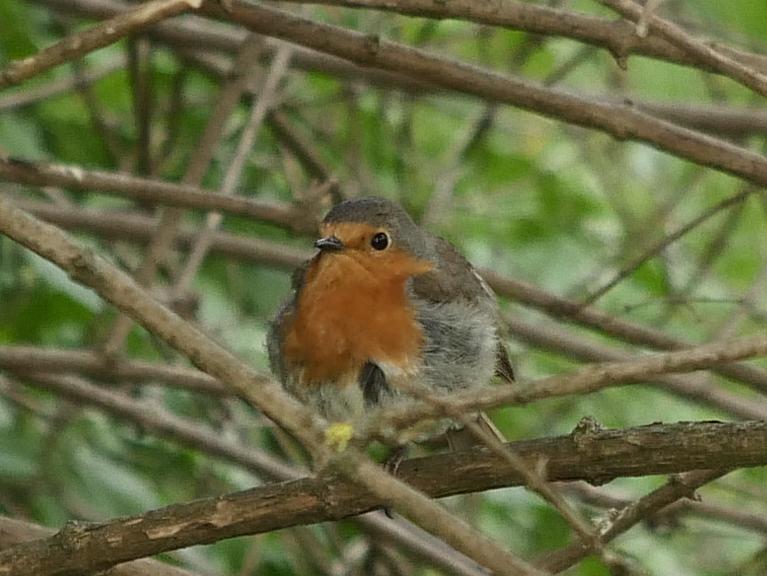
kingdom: Animalia
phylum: Chordata
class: Aves
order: Passeriformes
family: Muscicapidae
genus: Erithacus
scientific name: Erithacus rubecula
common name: European robin
